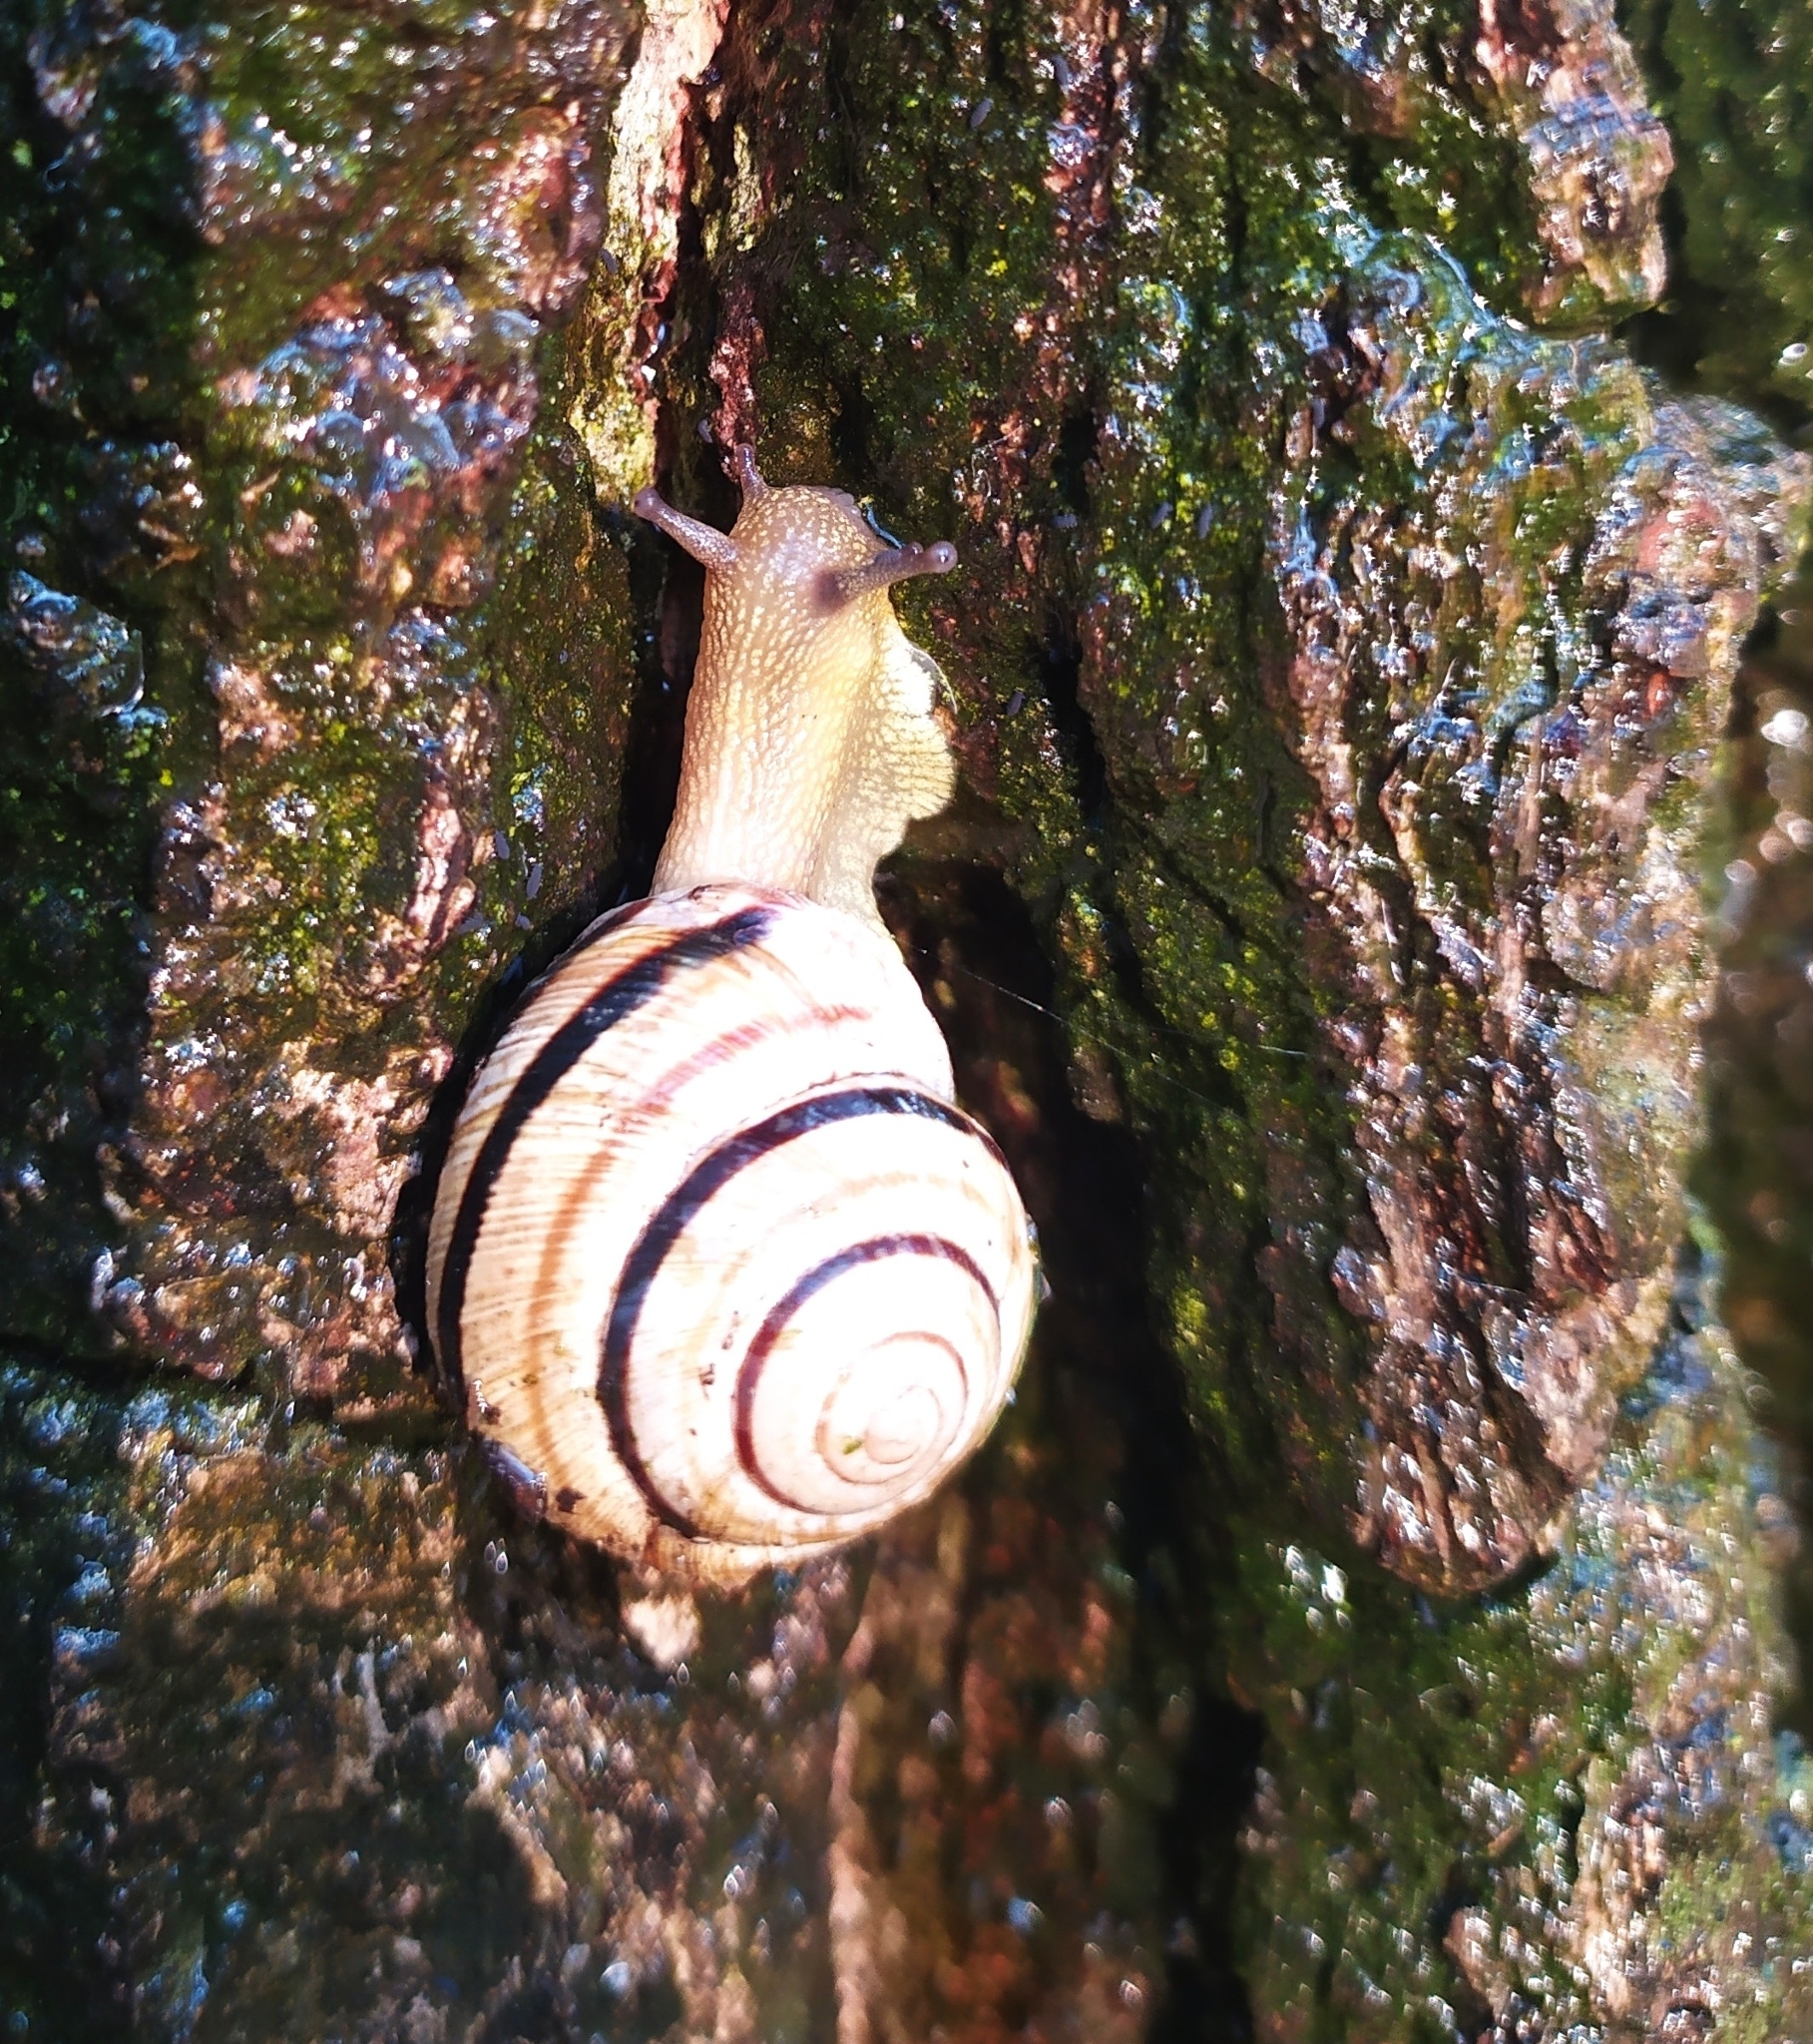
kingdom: Animalia
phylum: Mollusca
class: Gastropoda
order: Stylommatophora
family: Helicidae
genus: Caucasotachea
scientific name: Caucasotachea vindobonensis
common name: European helicid land snail
